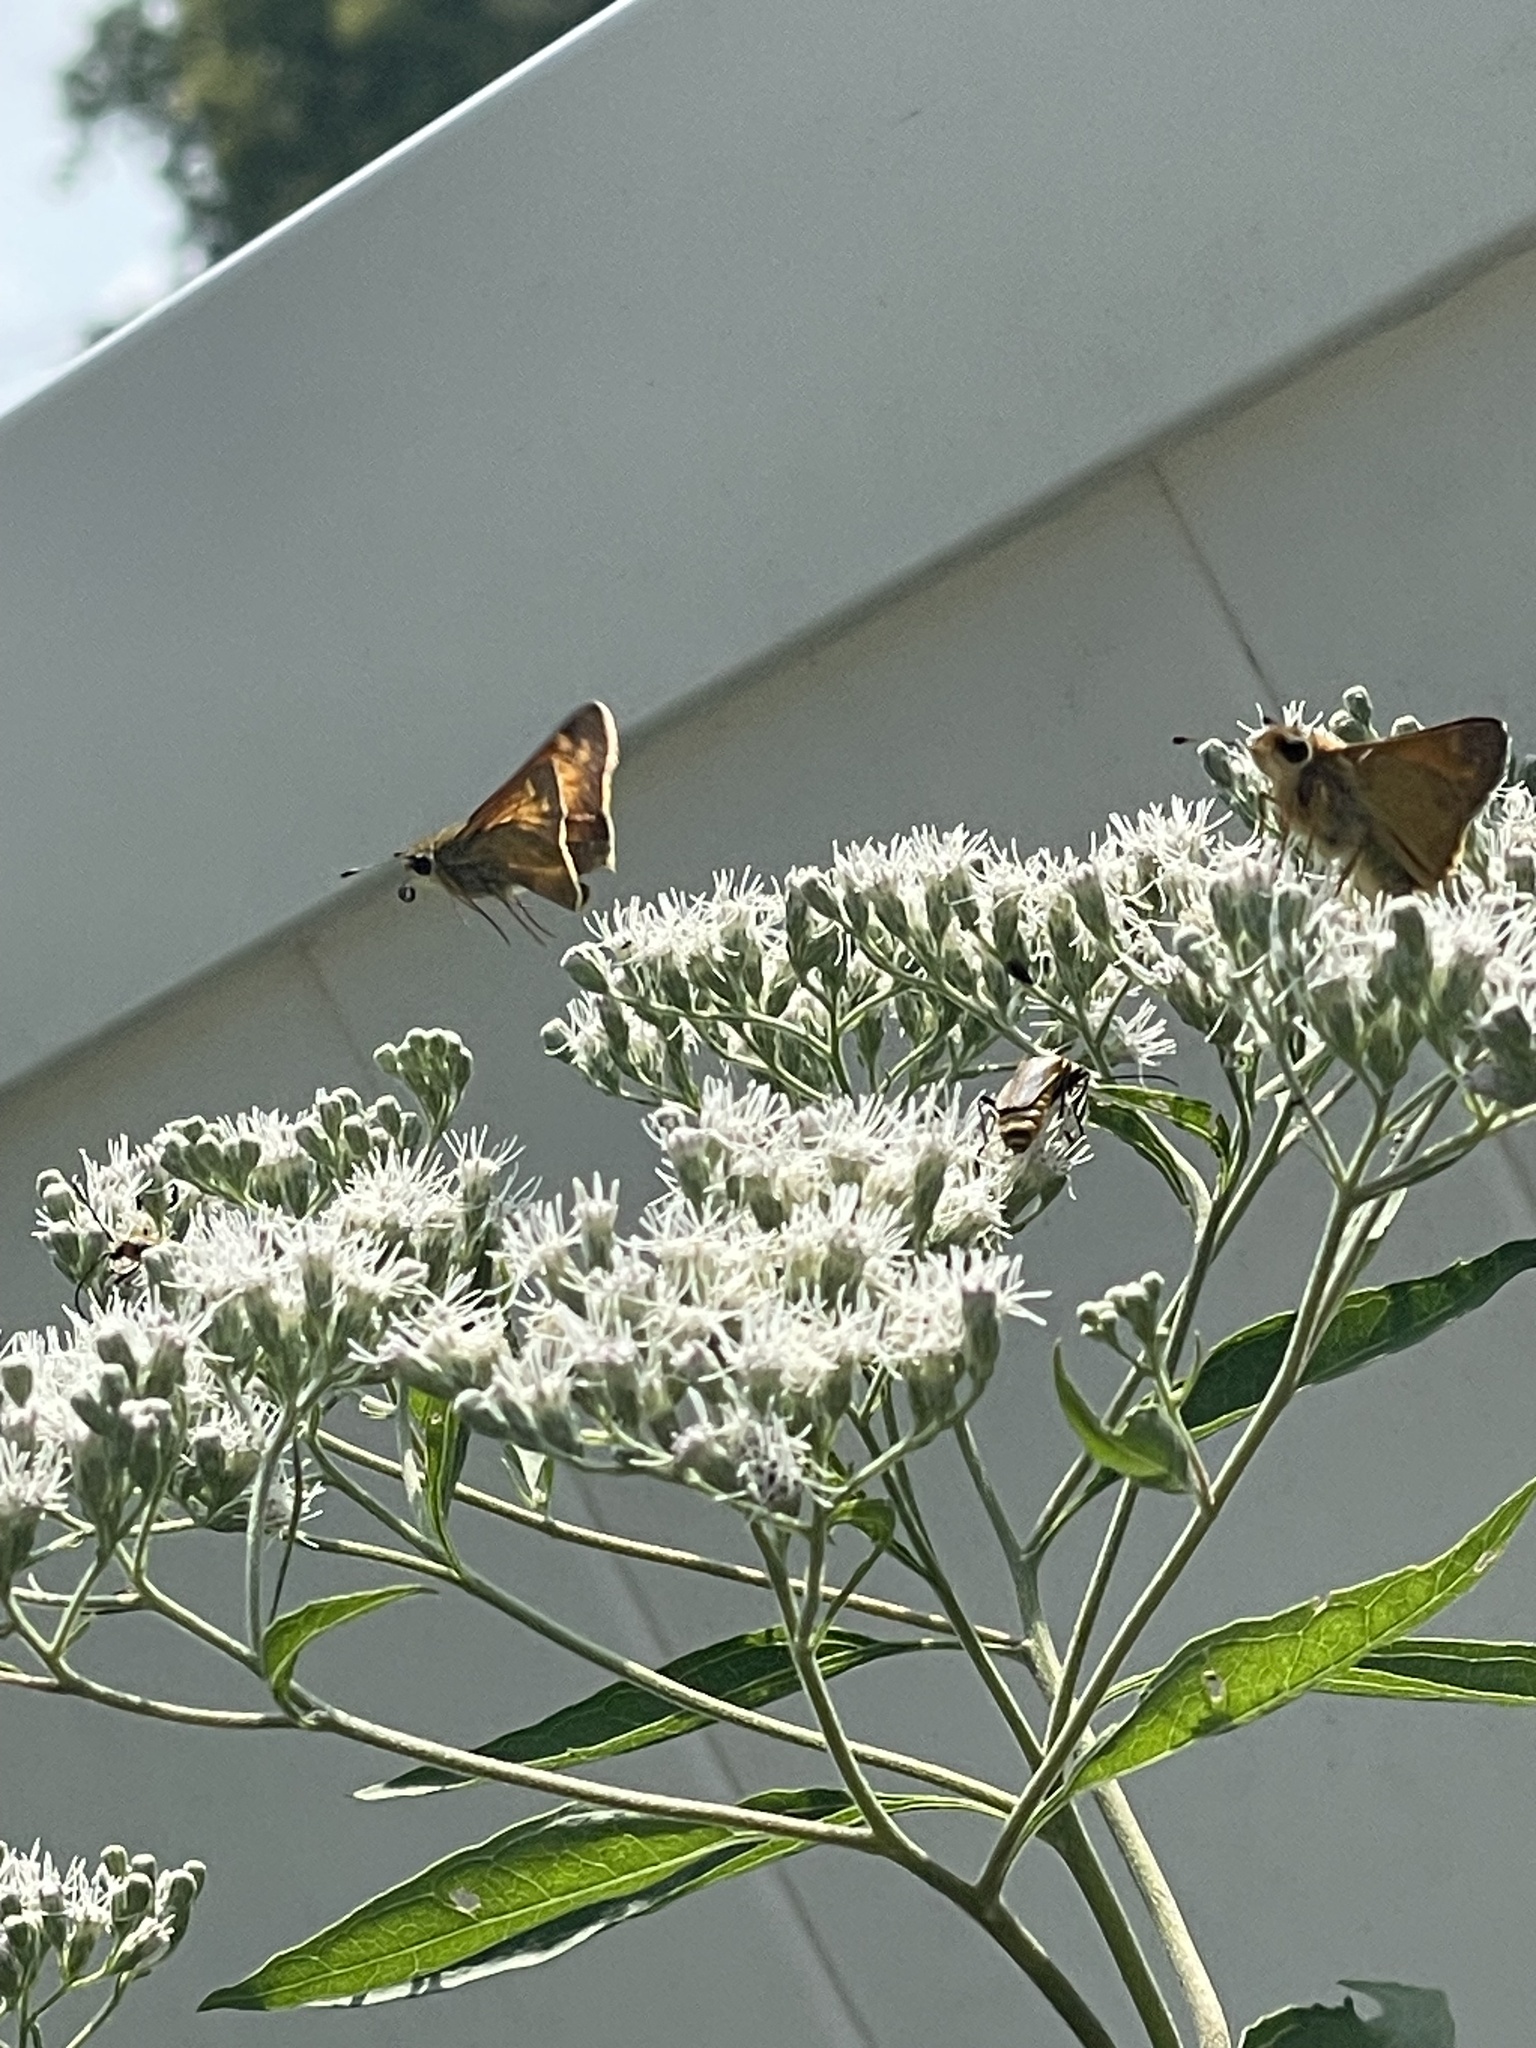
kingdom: Animalia
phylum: Arthropoda
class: Insecta
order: Lepidoptera
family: Hesperiidae
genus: Atalopedes
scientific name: Atalopedes
